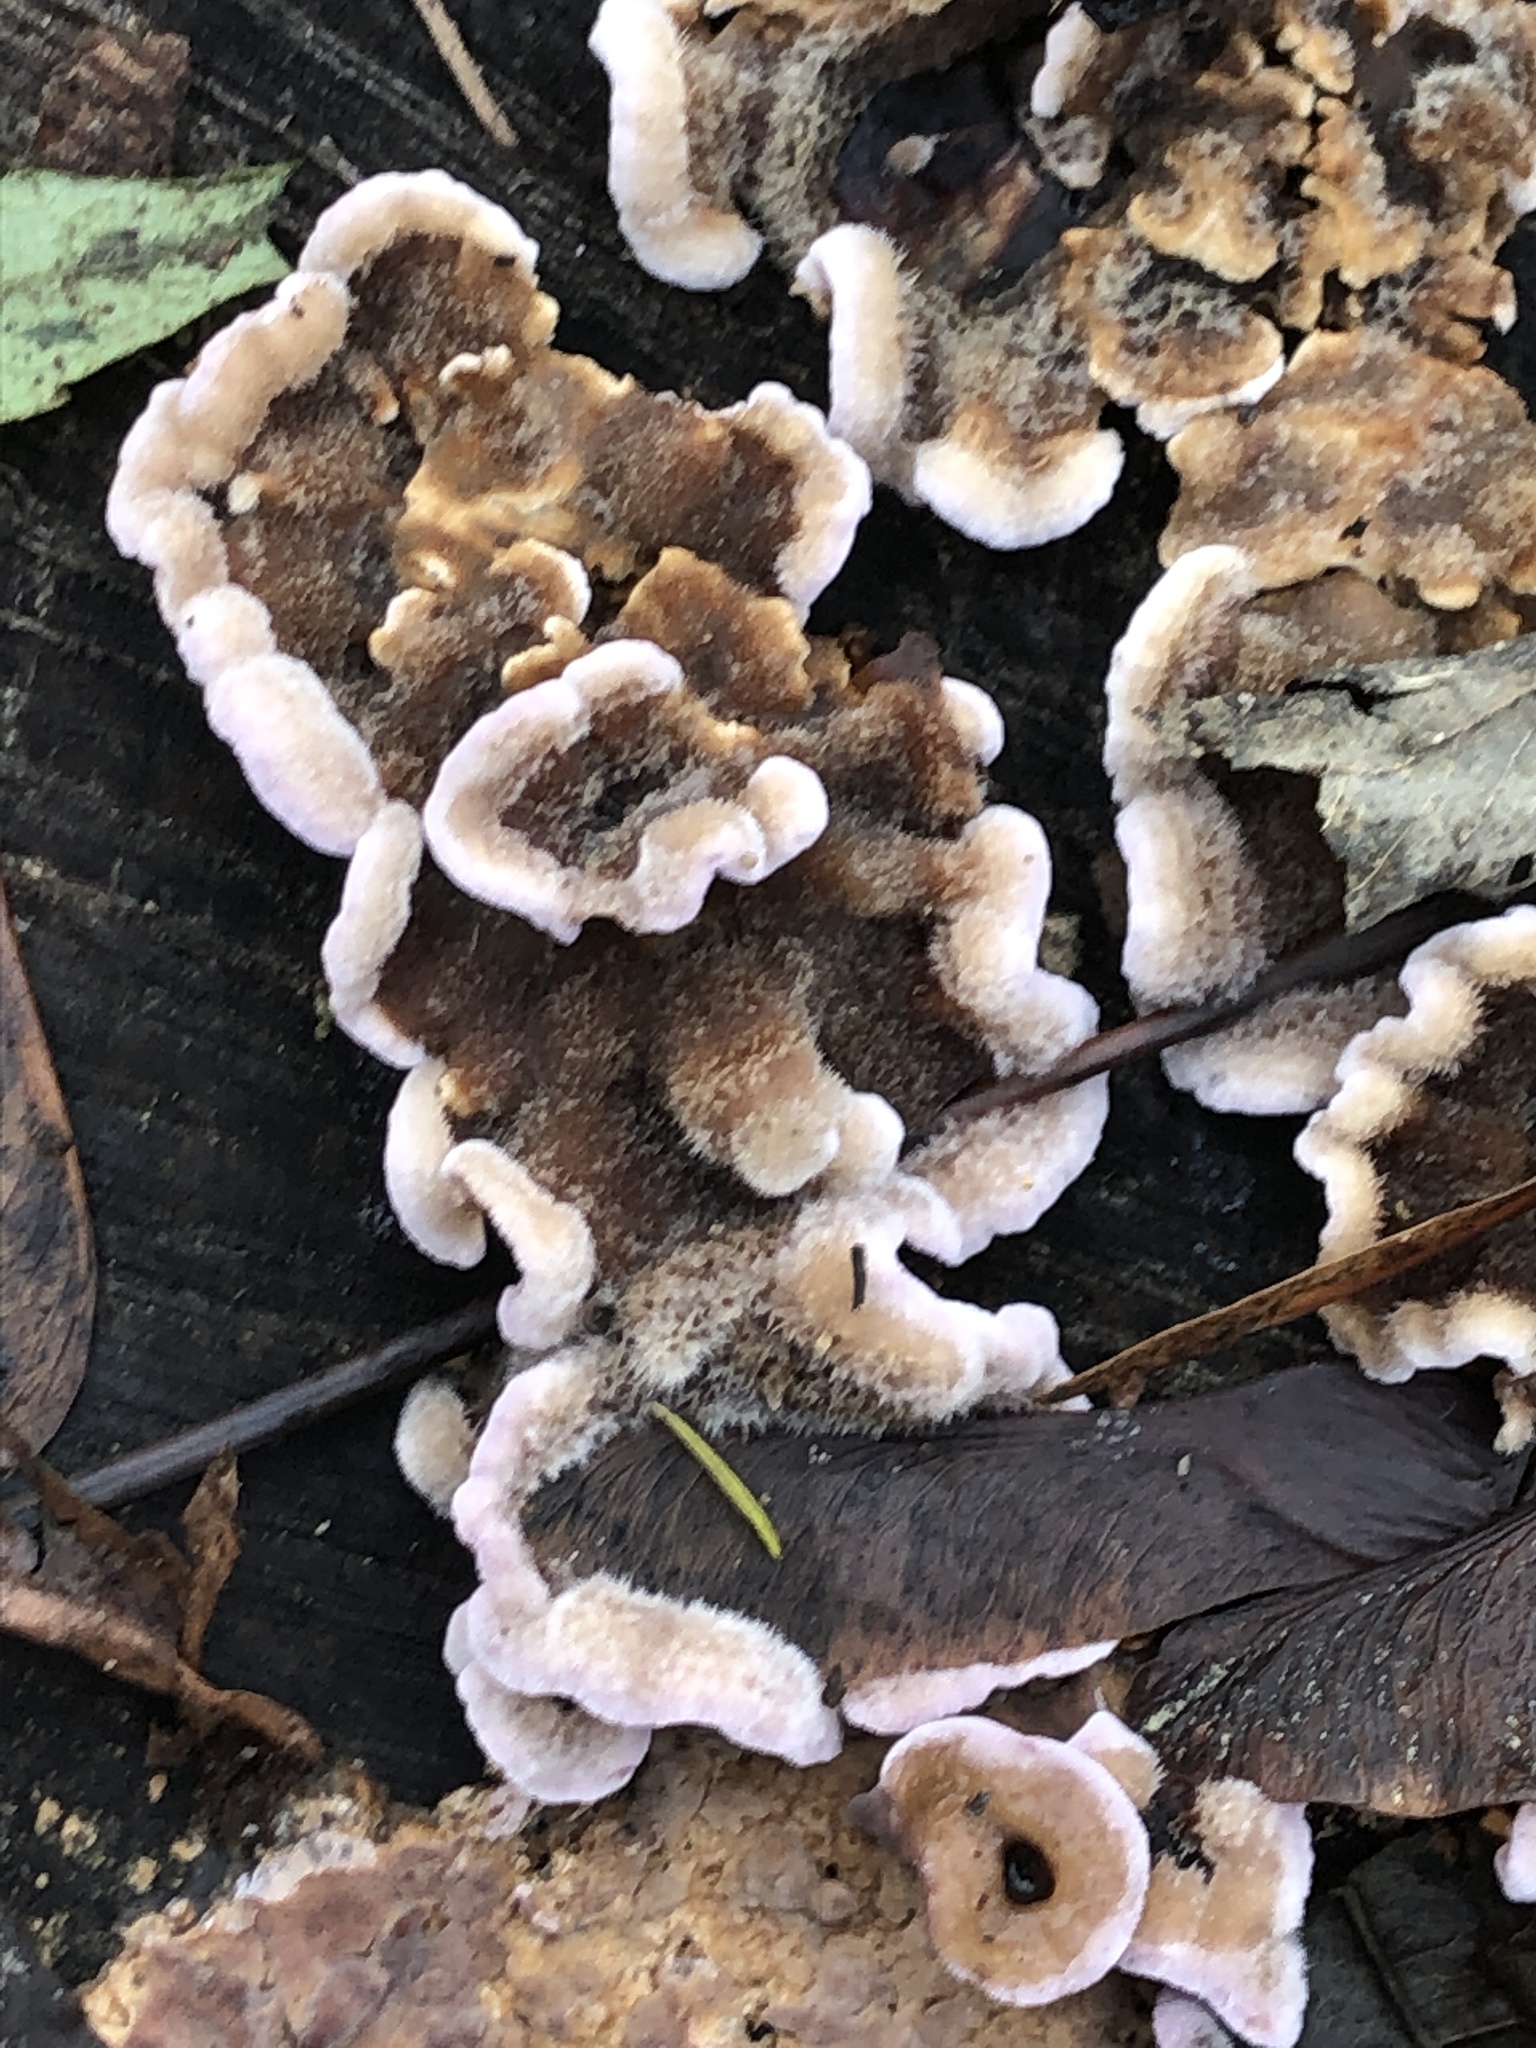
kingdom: Fungi
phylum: Basidiomycota
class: Agaricomycetes
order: Agaricales
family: Cyphellaceae
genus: Chondrostereum
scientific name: Chondrostereum purpureum
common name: Silver leaf disease
